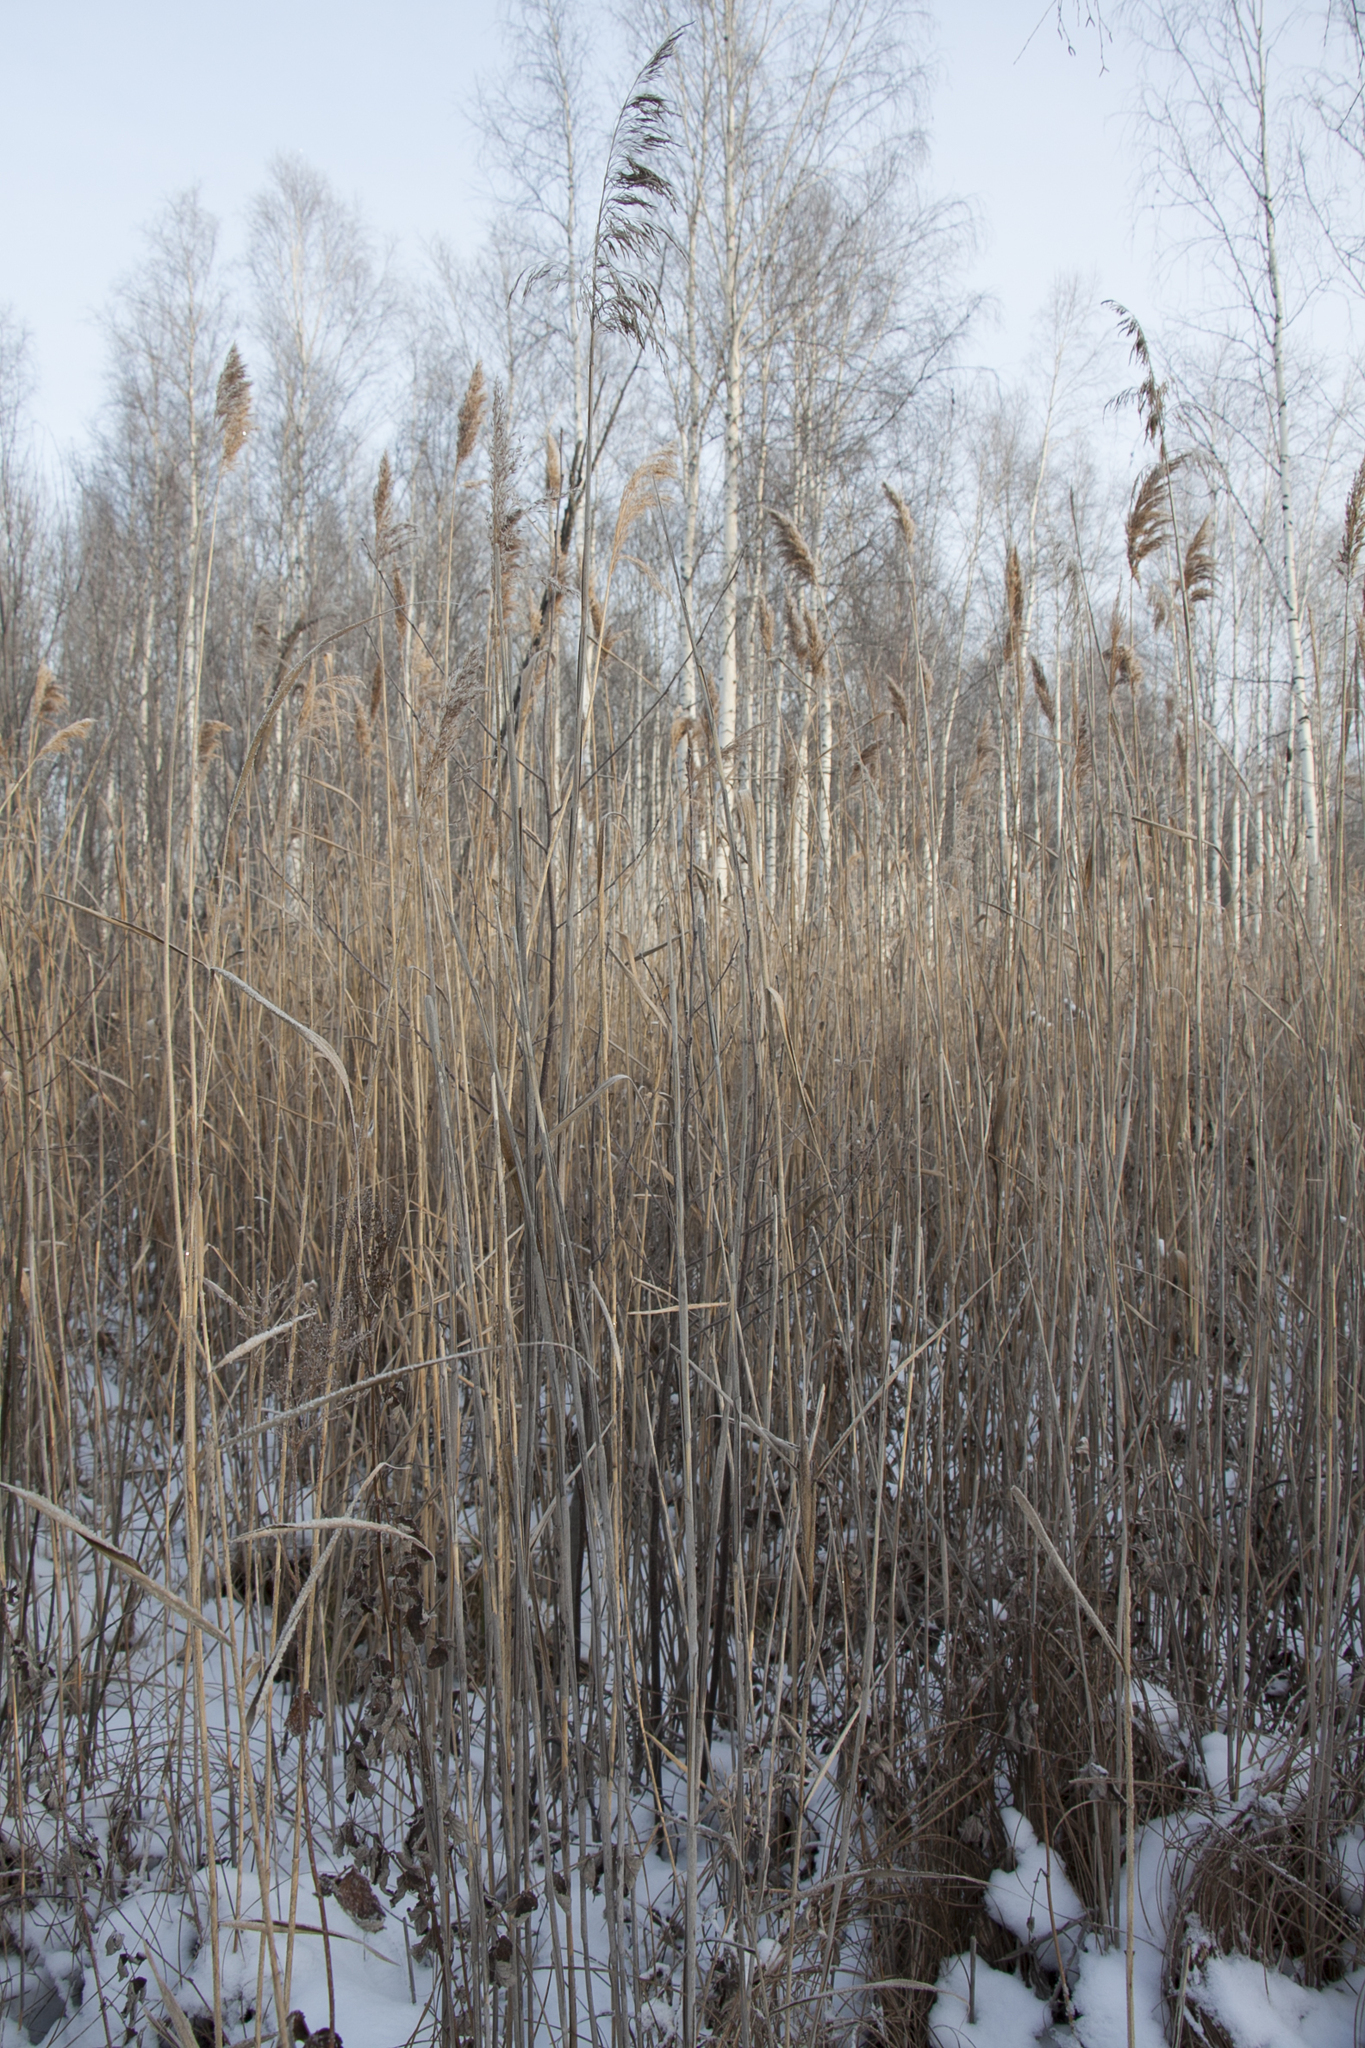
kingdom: Plantae
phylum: Tracheophyta
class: Liliopsida
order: Poales
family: Poaceae
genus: Phragmites
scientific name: Phragmites australis
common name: Common reed
